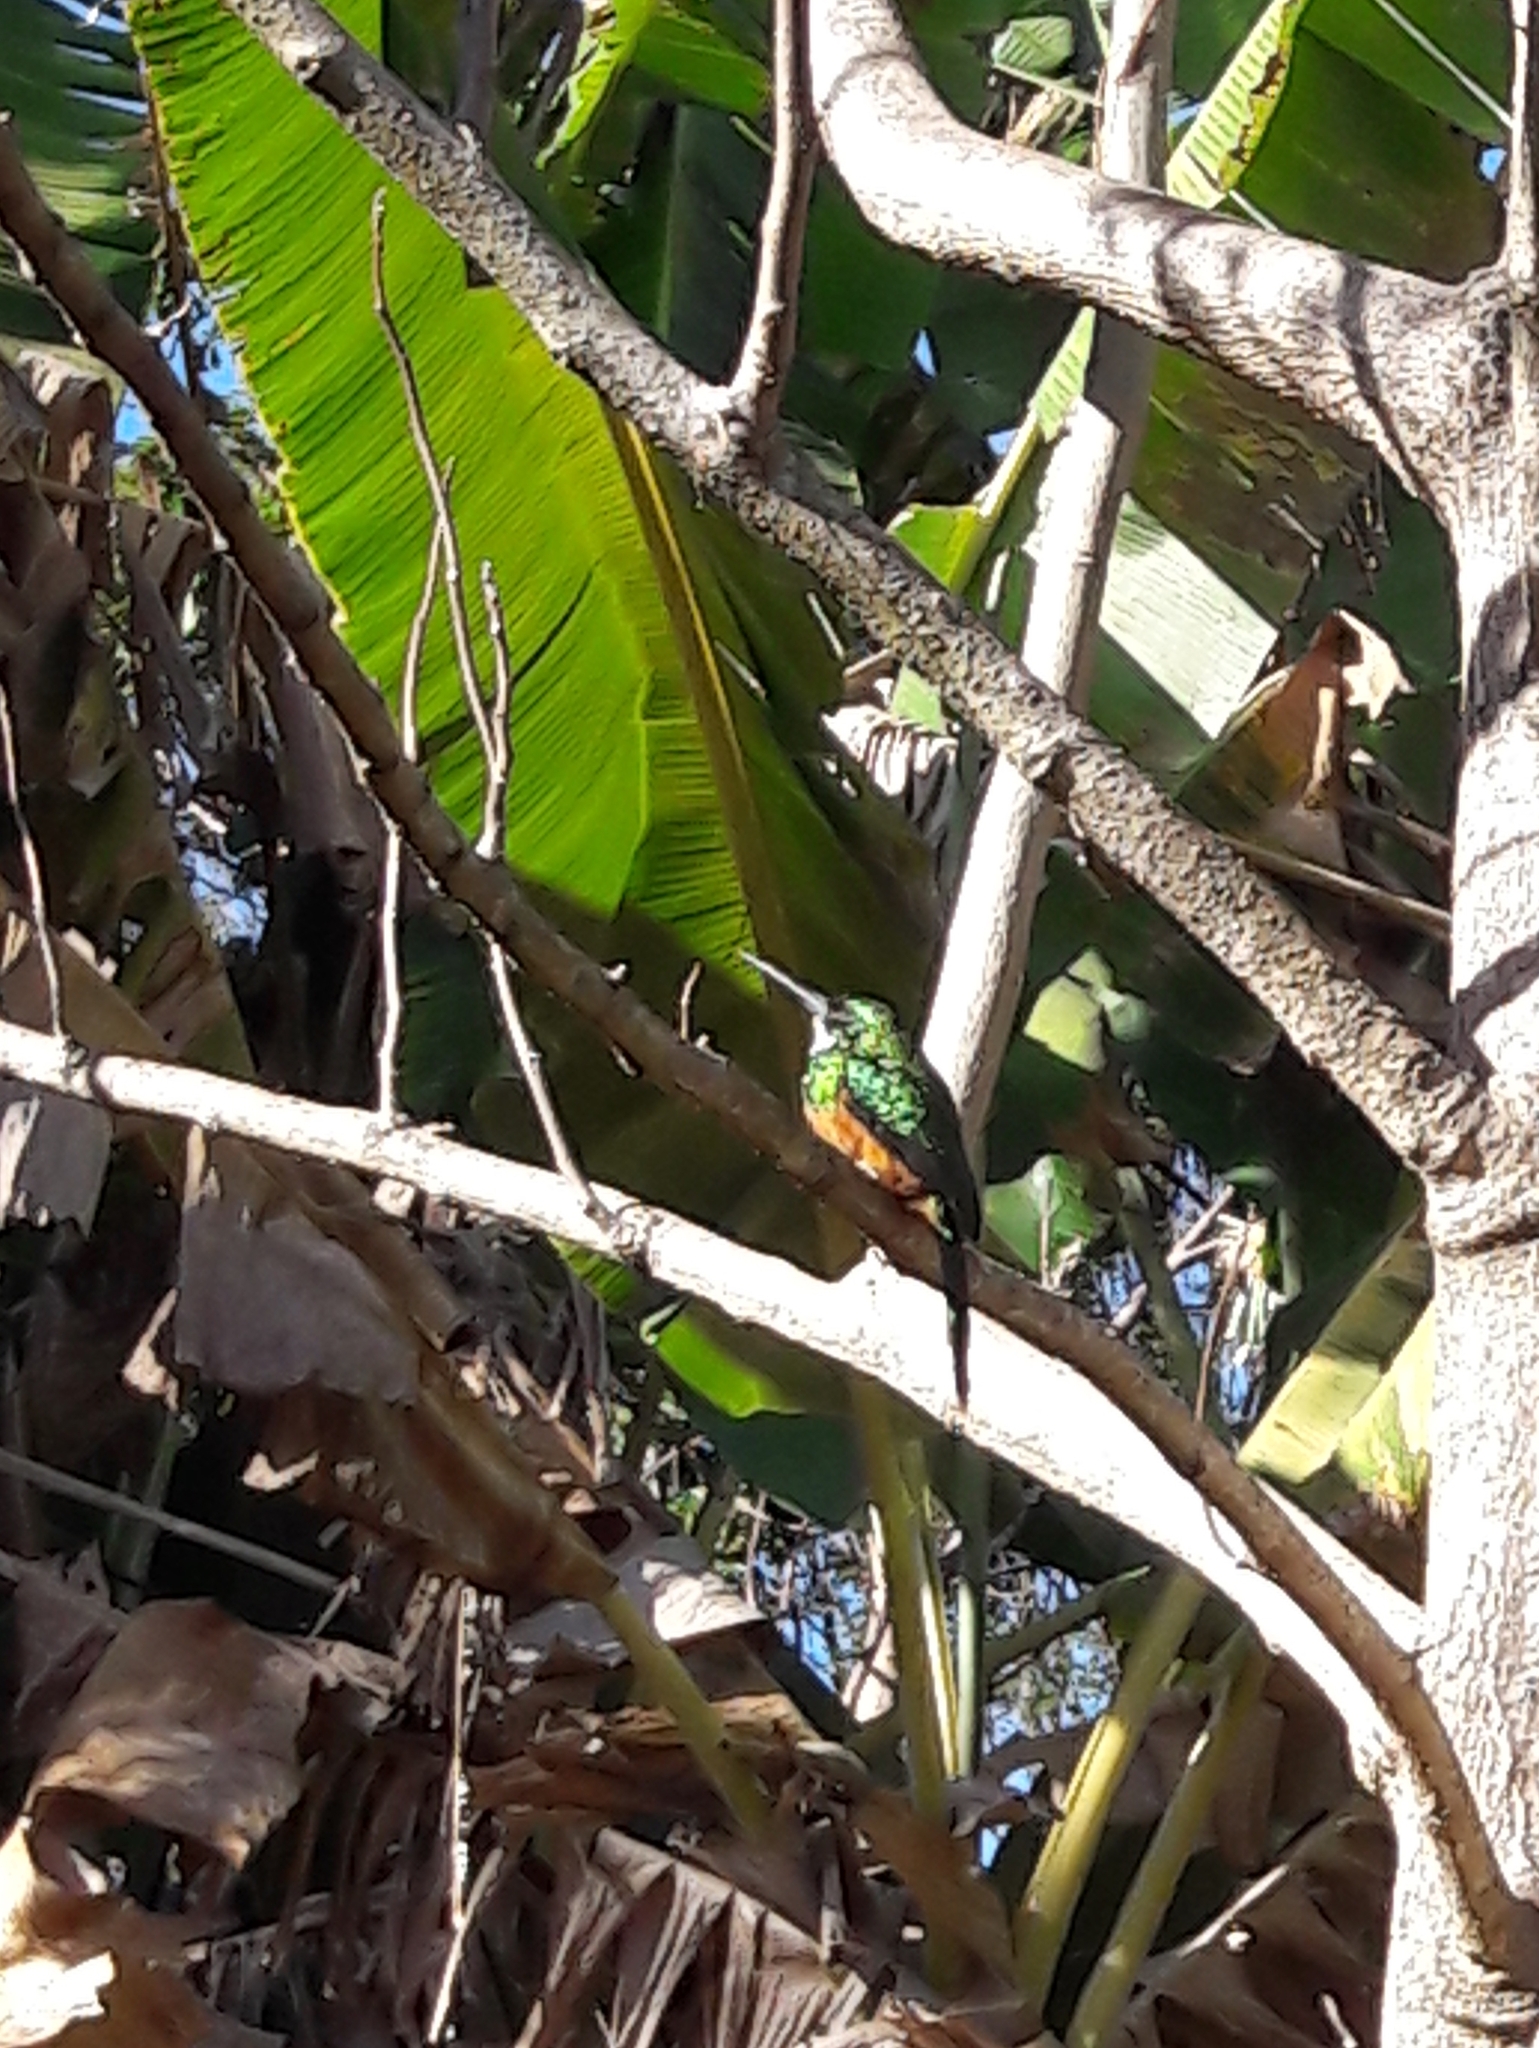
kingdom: Animalia
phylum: Chordata
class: Aves
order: Piciformes
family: Galbulidae
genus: Galbula
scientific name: Galbula ruficauda
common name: Rufous-tailed jacamar
